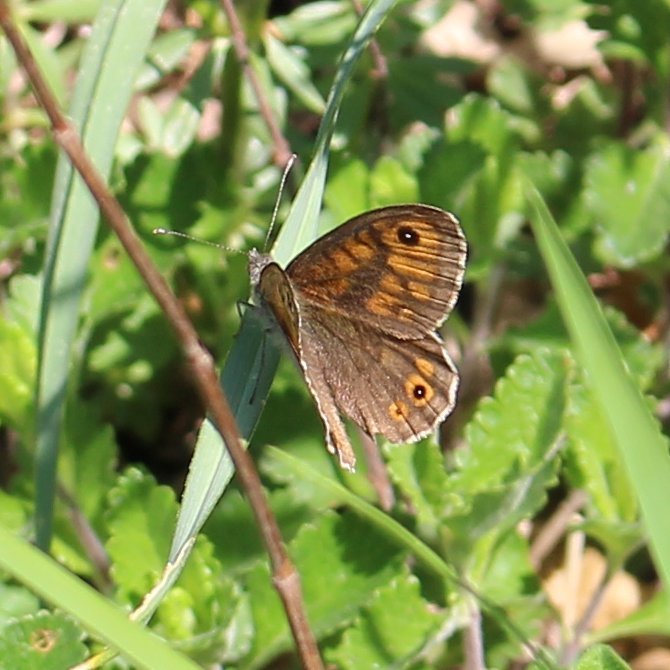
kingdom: Animalia
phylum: Arthropoda
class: Insecta
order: Lepidoptera
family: Nymphalidae
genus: Pararge
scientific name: Pararge Lasiommata megera
